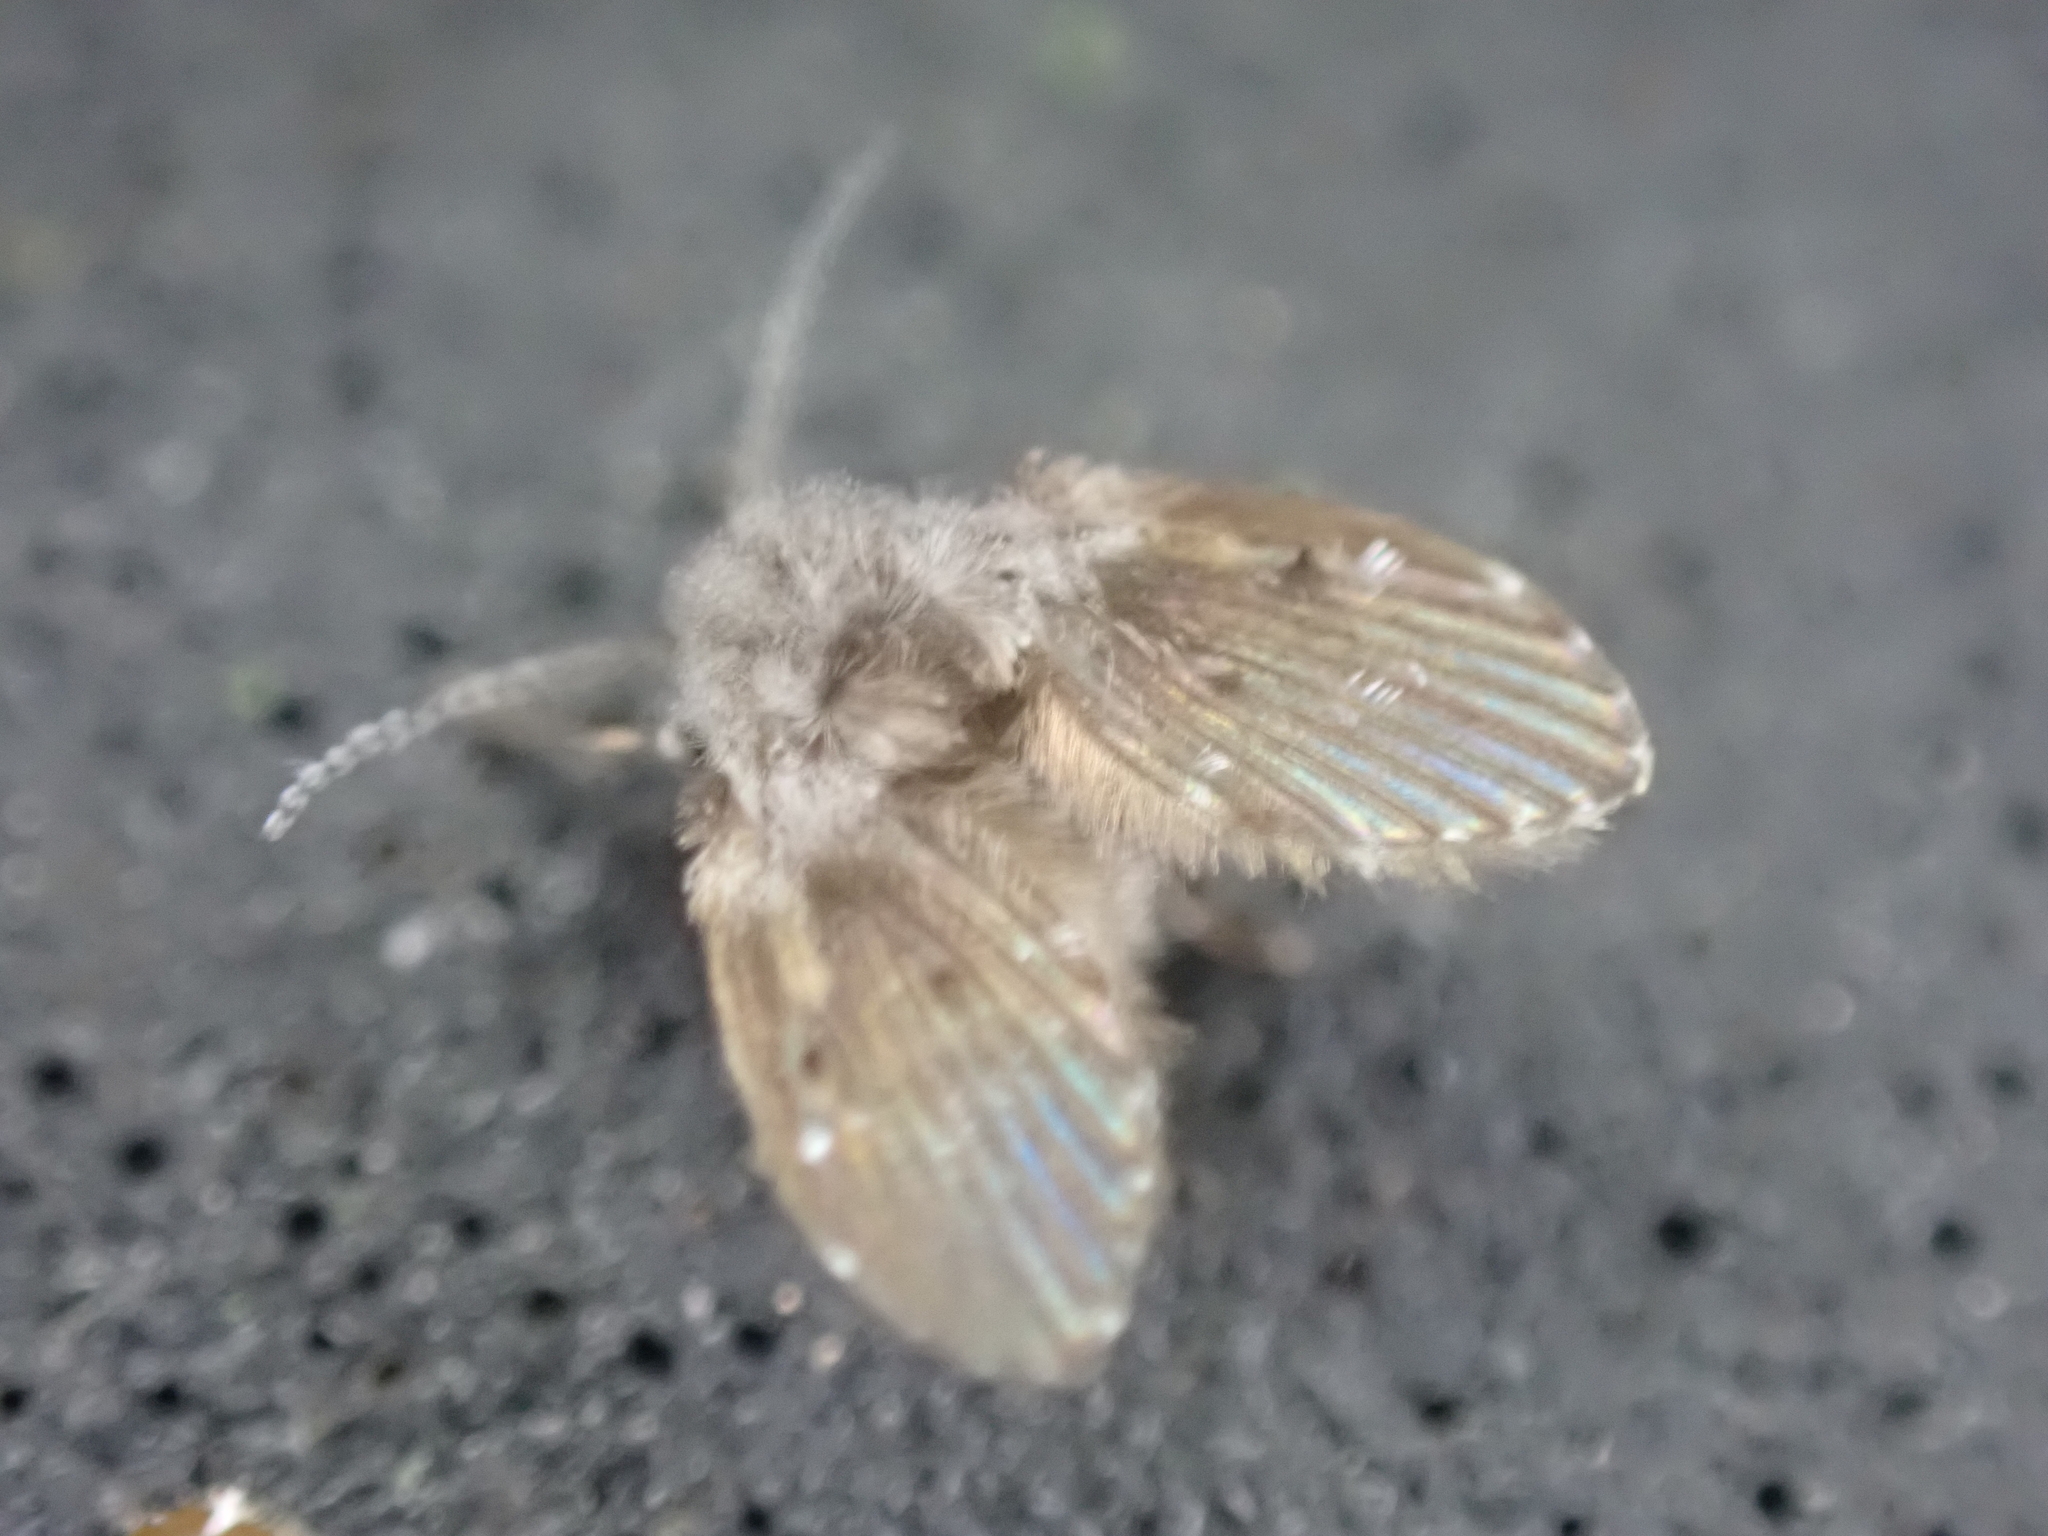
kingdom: Animalia
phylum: Arthropoda
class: Insecta
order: Diptera
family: Psychodidae
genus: Clogmia
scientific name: Clogmia albipunctatus
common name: White-spotted moth fly
